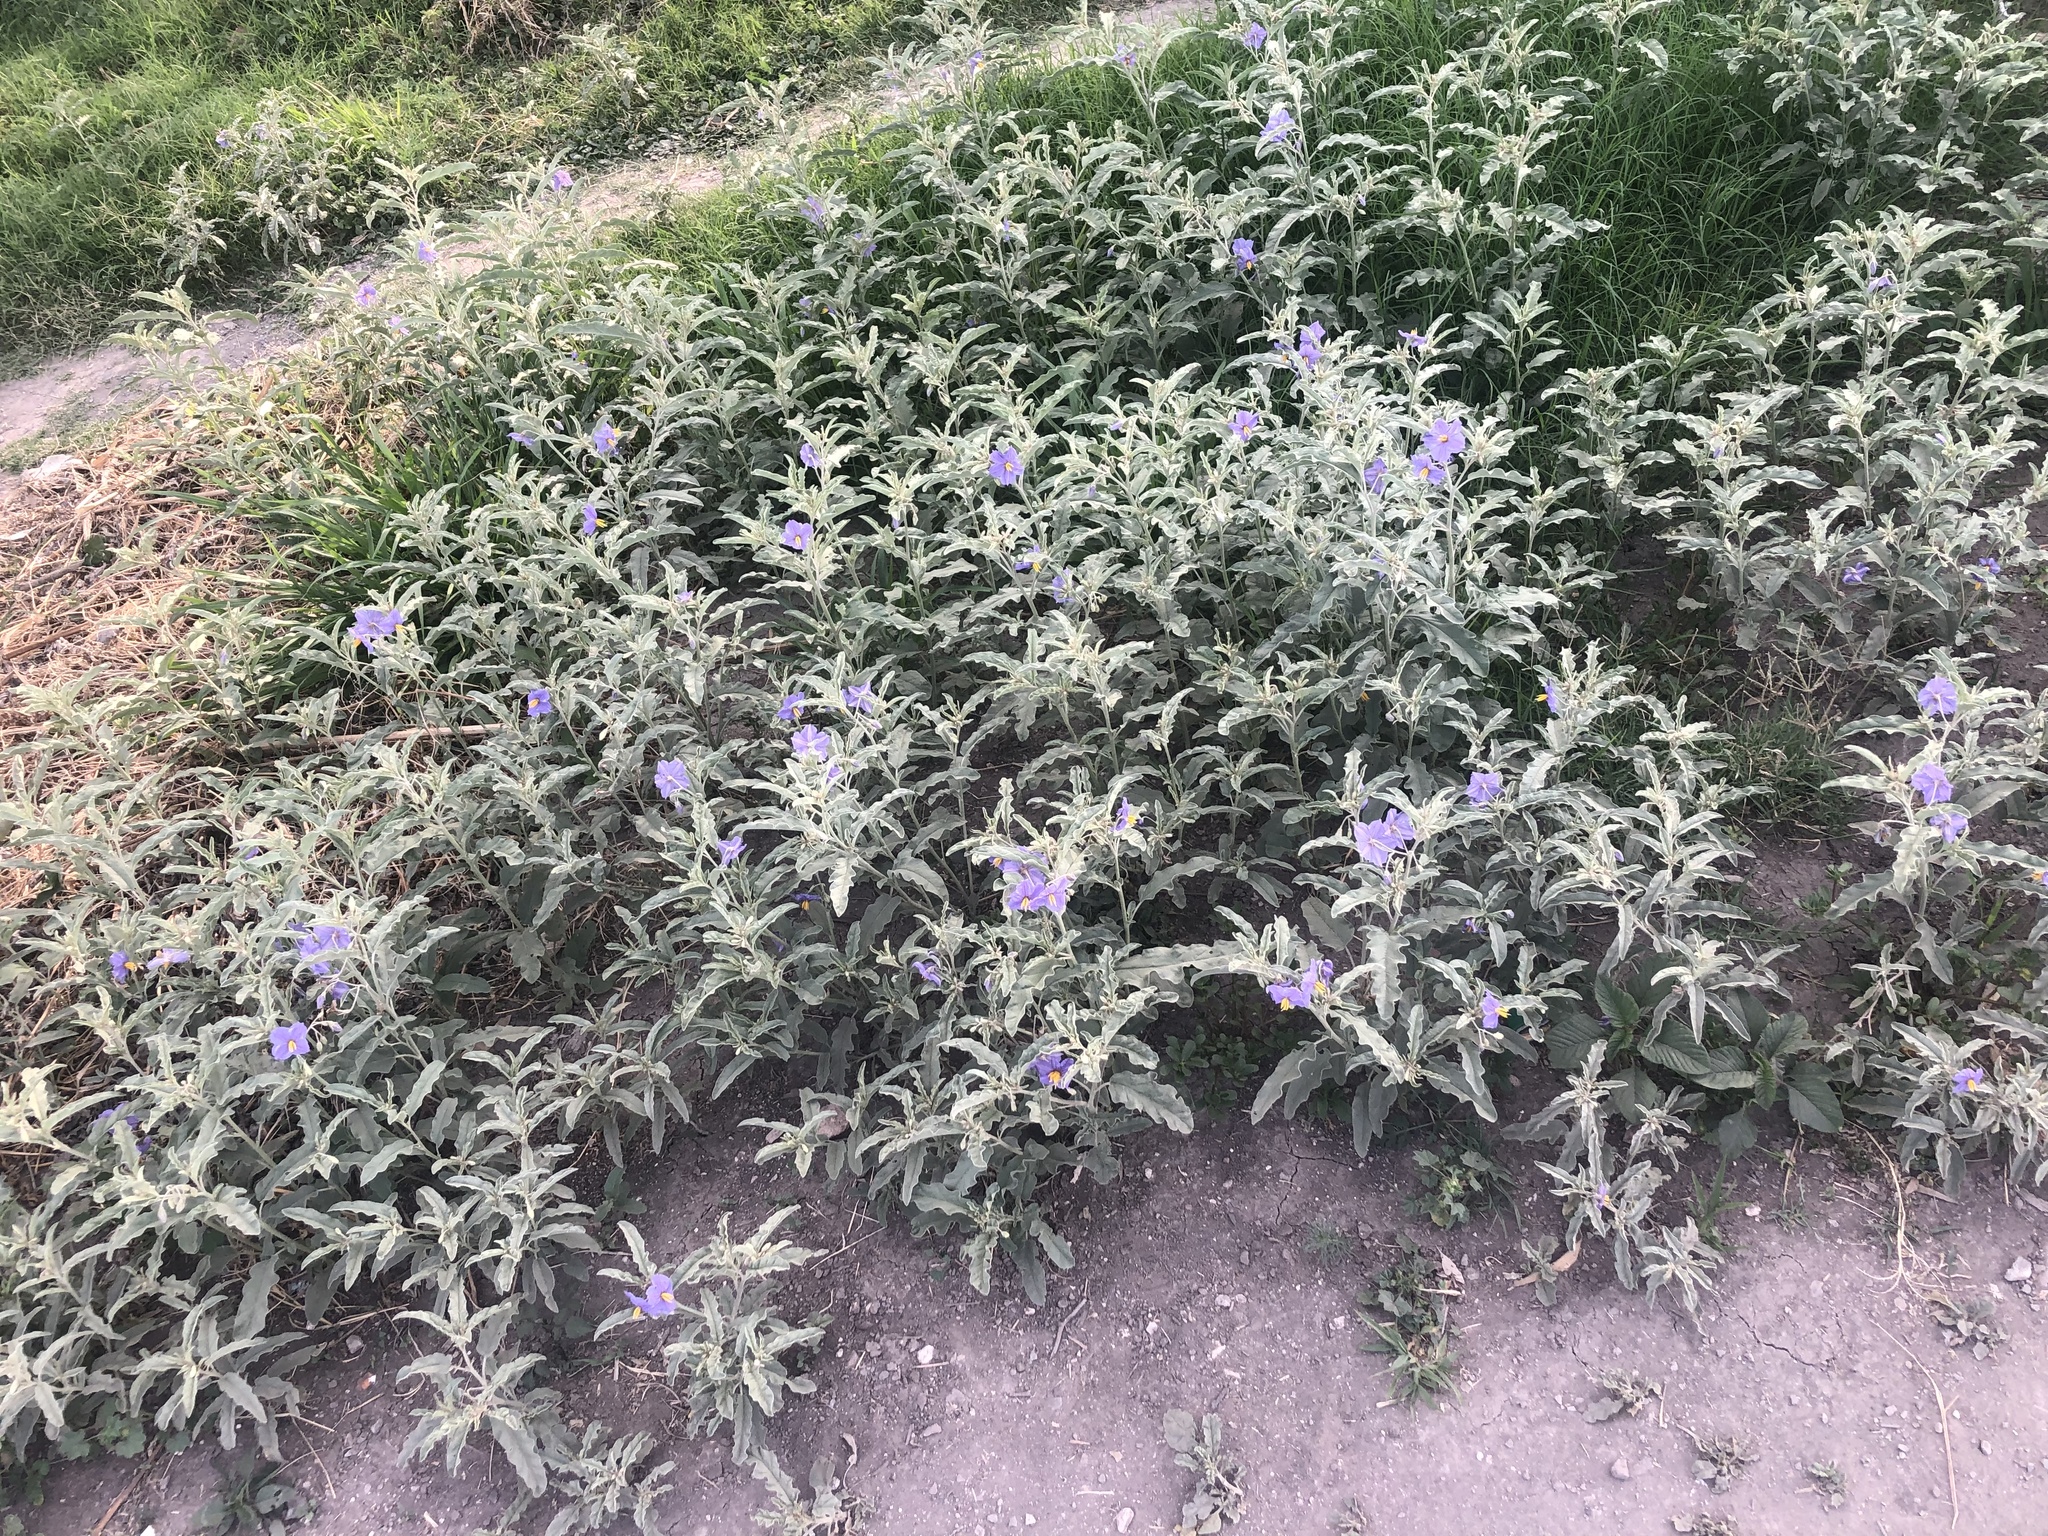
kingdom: Plantae
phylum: Tracheophyta
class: Magnoliopsida
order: Solanales
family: Solanaceae
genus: Solanum
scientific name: Solanum elaeagnifolium
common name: Silverleaf nightshade
